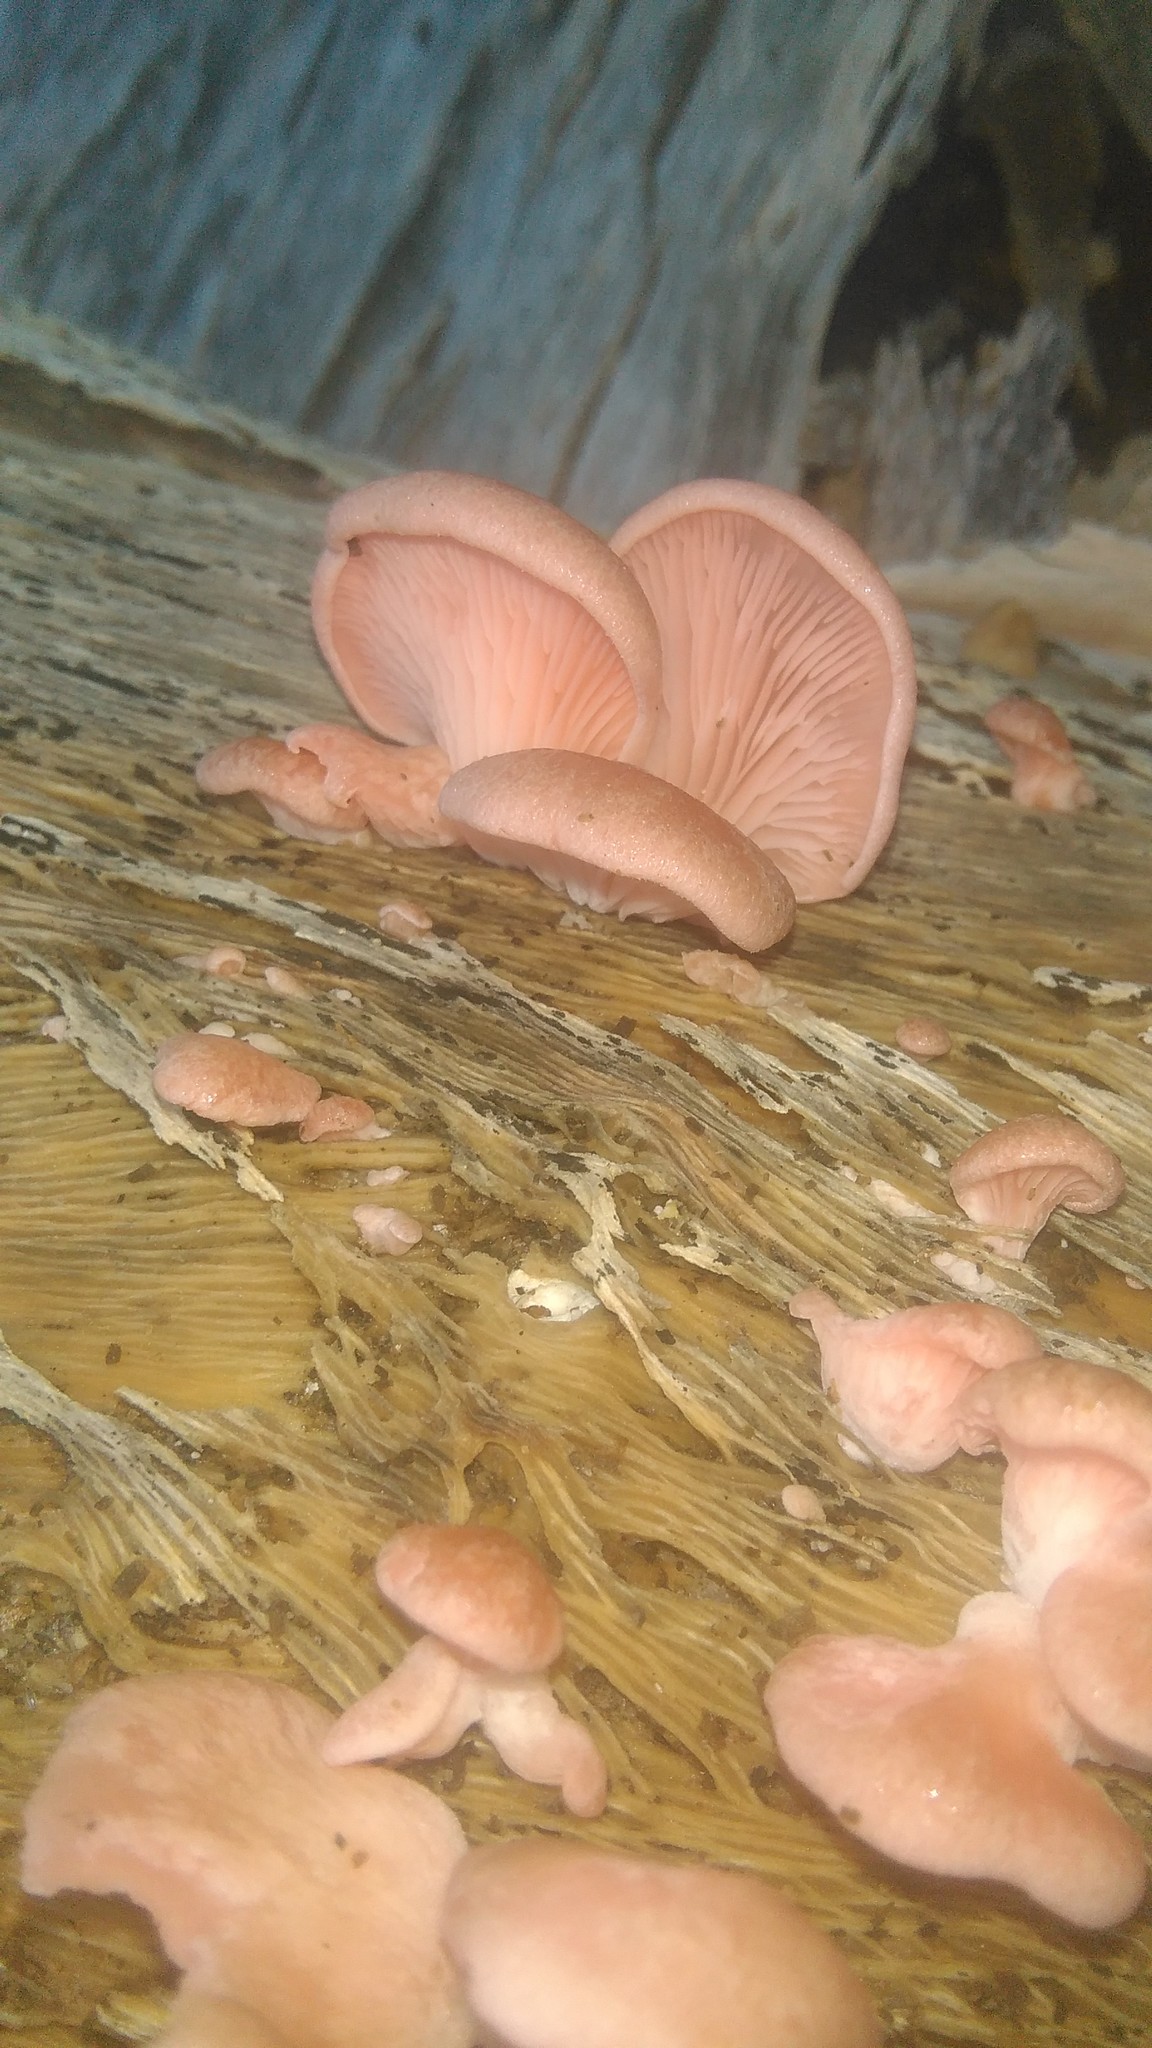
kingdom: Fungi
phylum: Basidiomycota
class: Agaricomycetes
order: Agaricales
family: Pleurotaceae
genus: Pleurotus
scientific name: Pleurotus djamor
